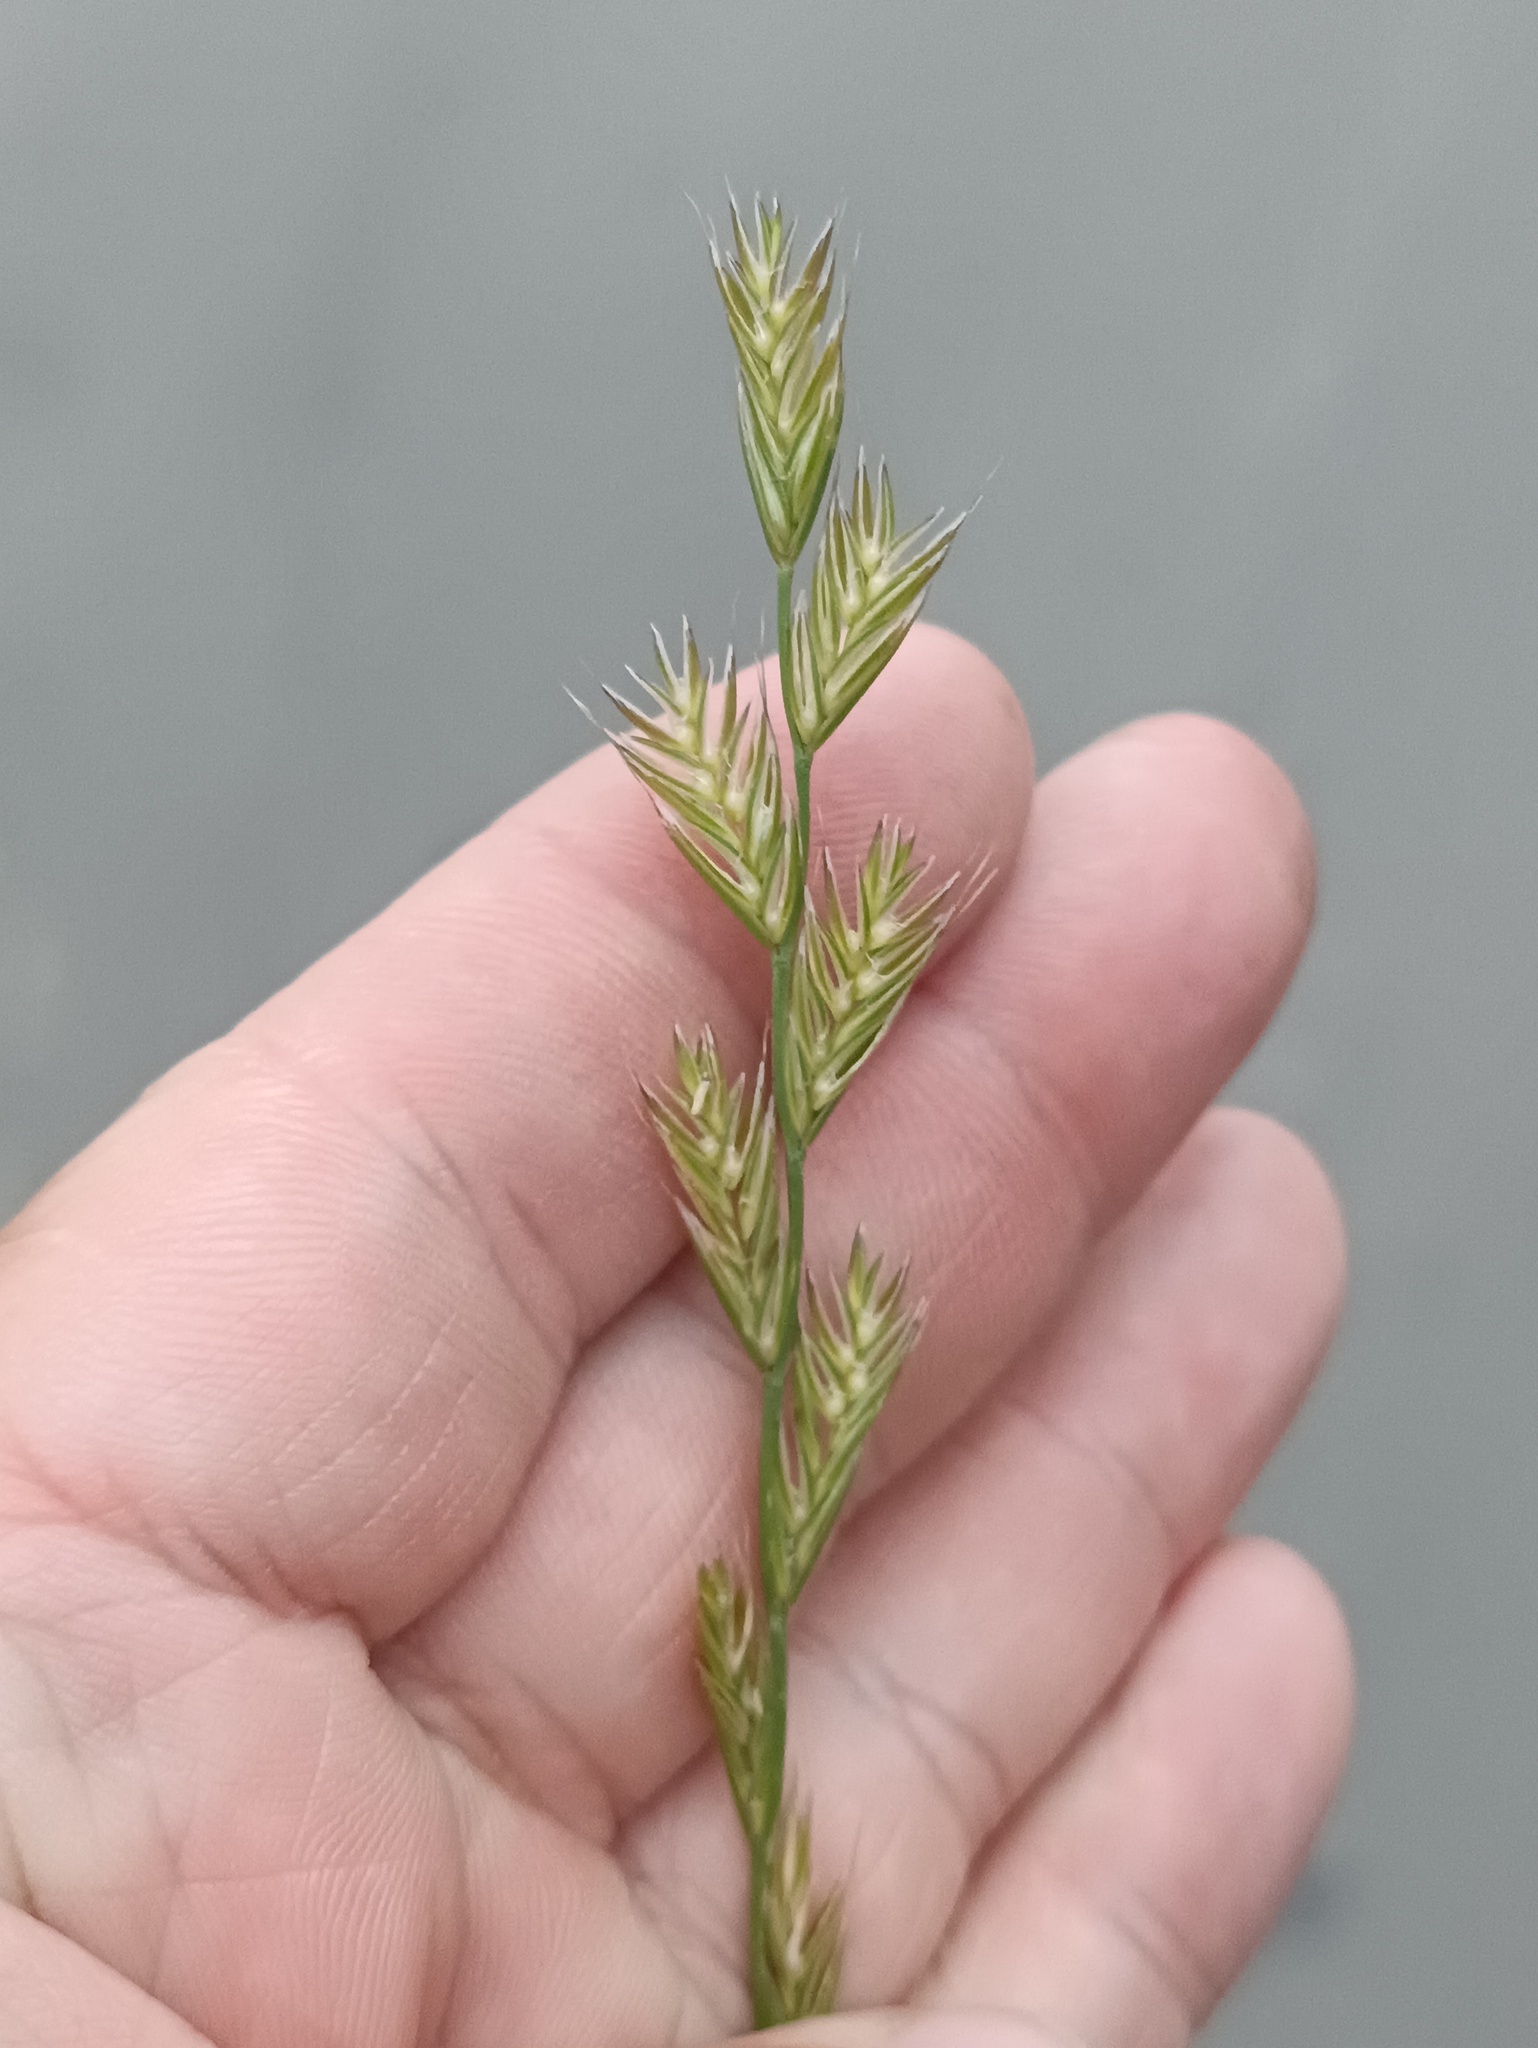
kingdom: Plantae
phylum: Tracheophyta
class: Liliopsida
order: Poales
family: Poaceae
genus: Lolium
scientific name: Lolium multiflorum
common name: Annual ryegrass
